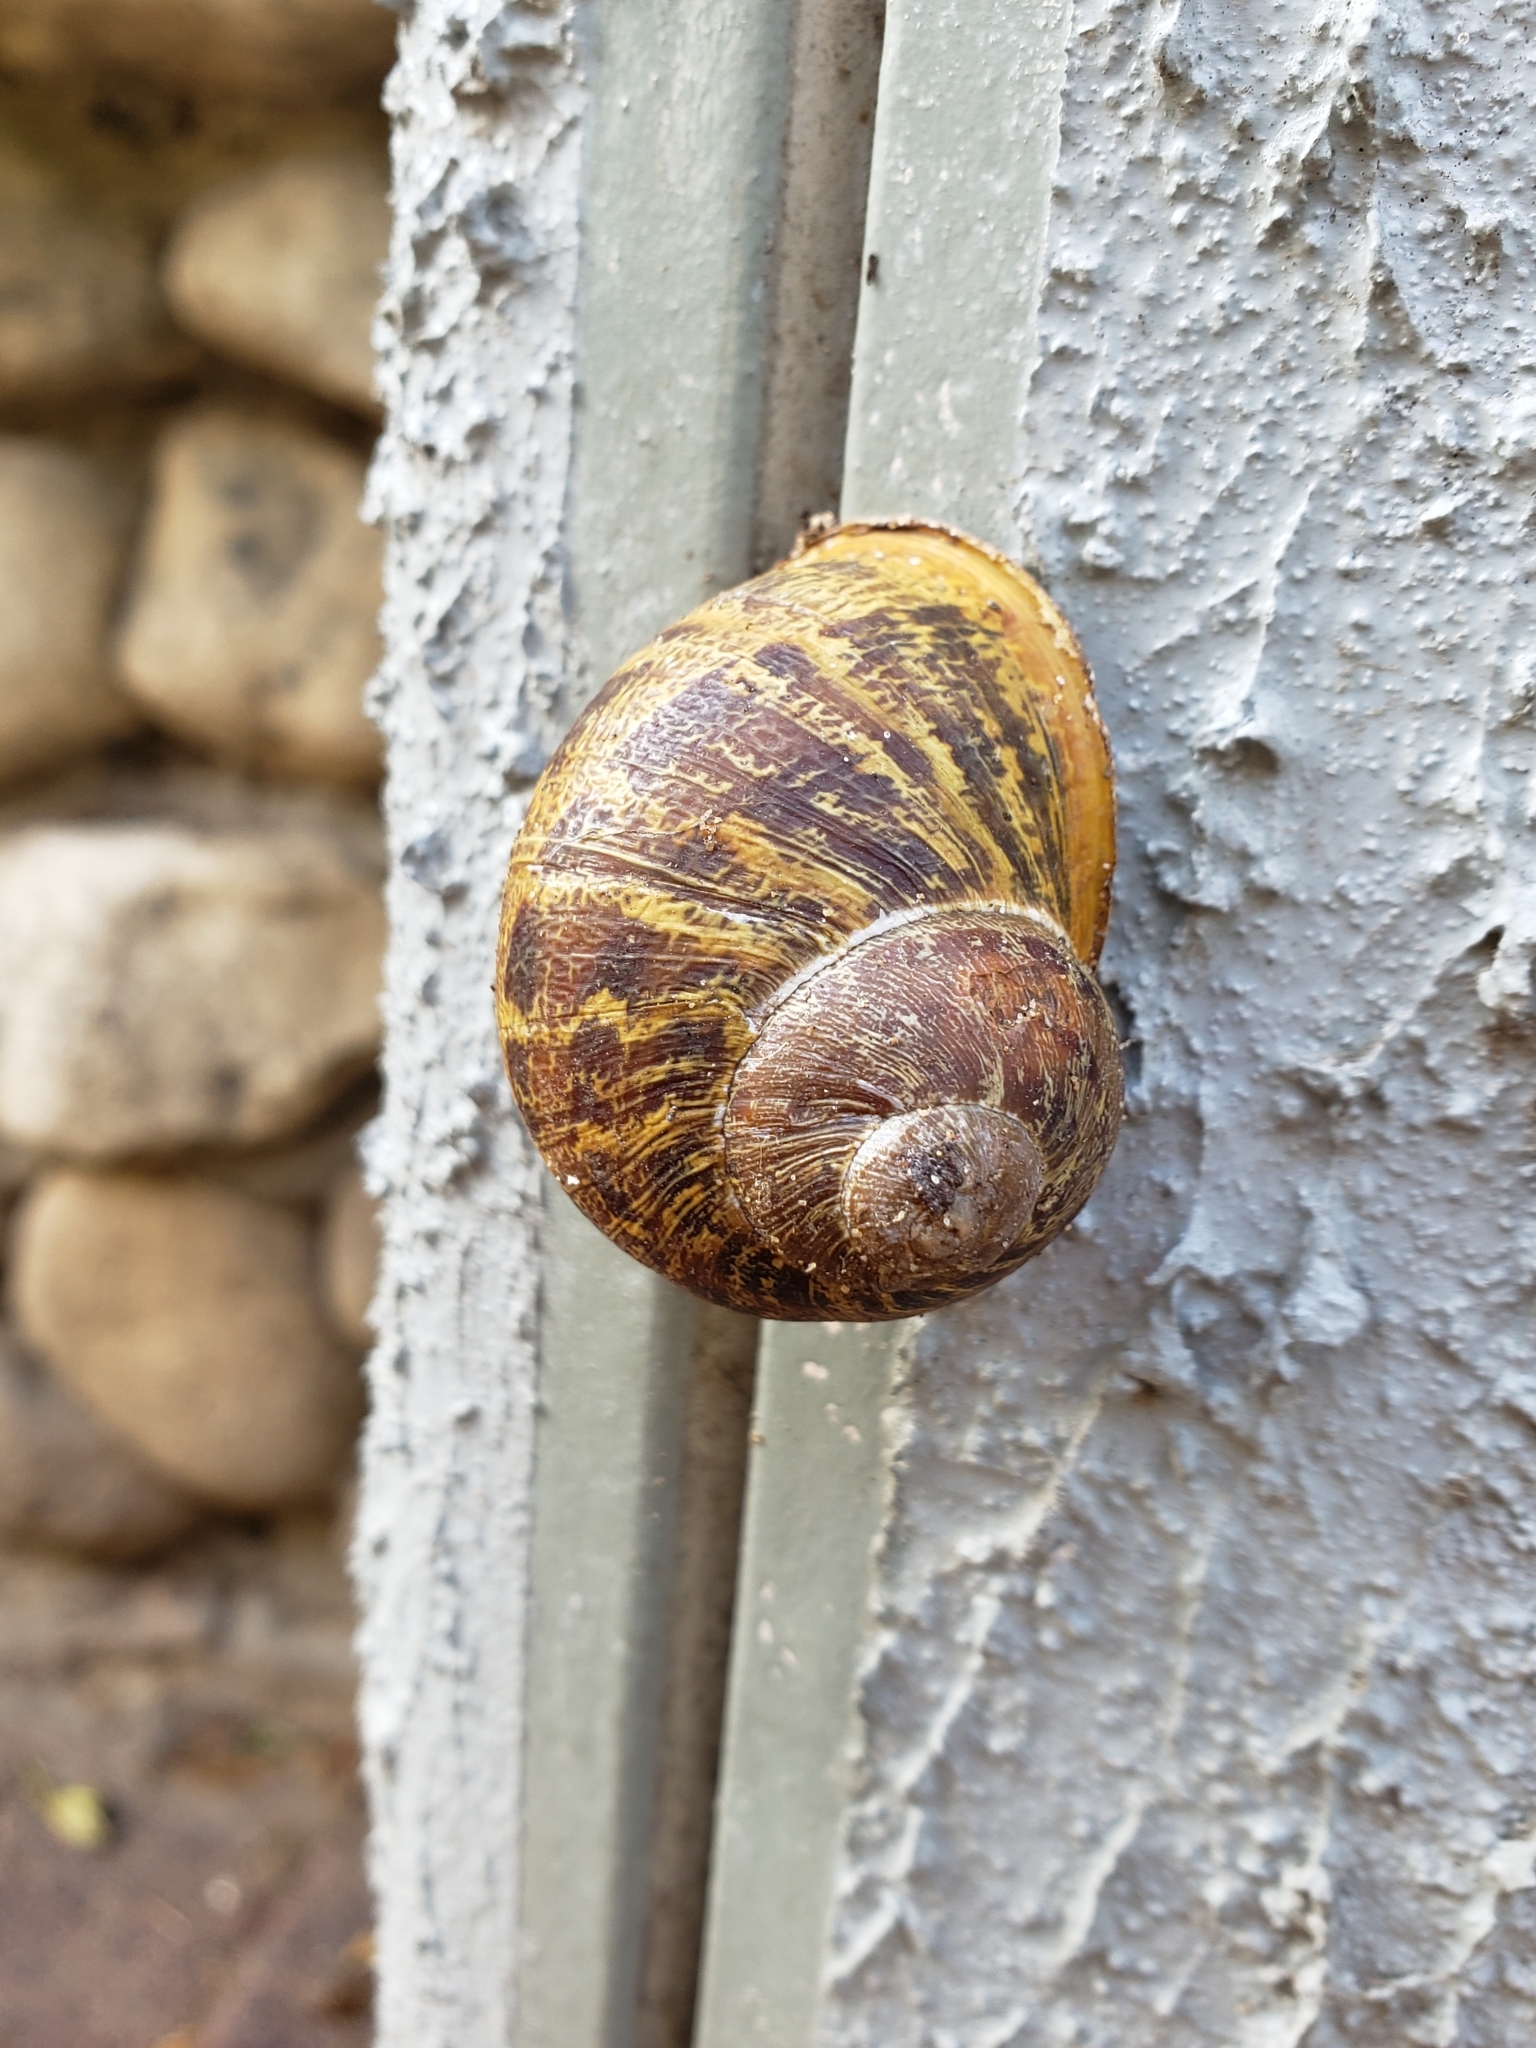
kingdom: Animalia
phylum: Mollusca
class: Gastropoda
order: Stylommatophora
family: Helicidae
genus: Cornu
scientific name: Cornu aspersum
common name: Brown garden snail
